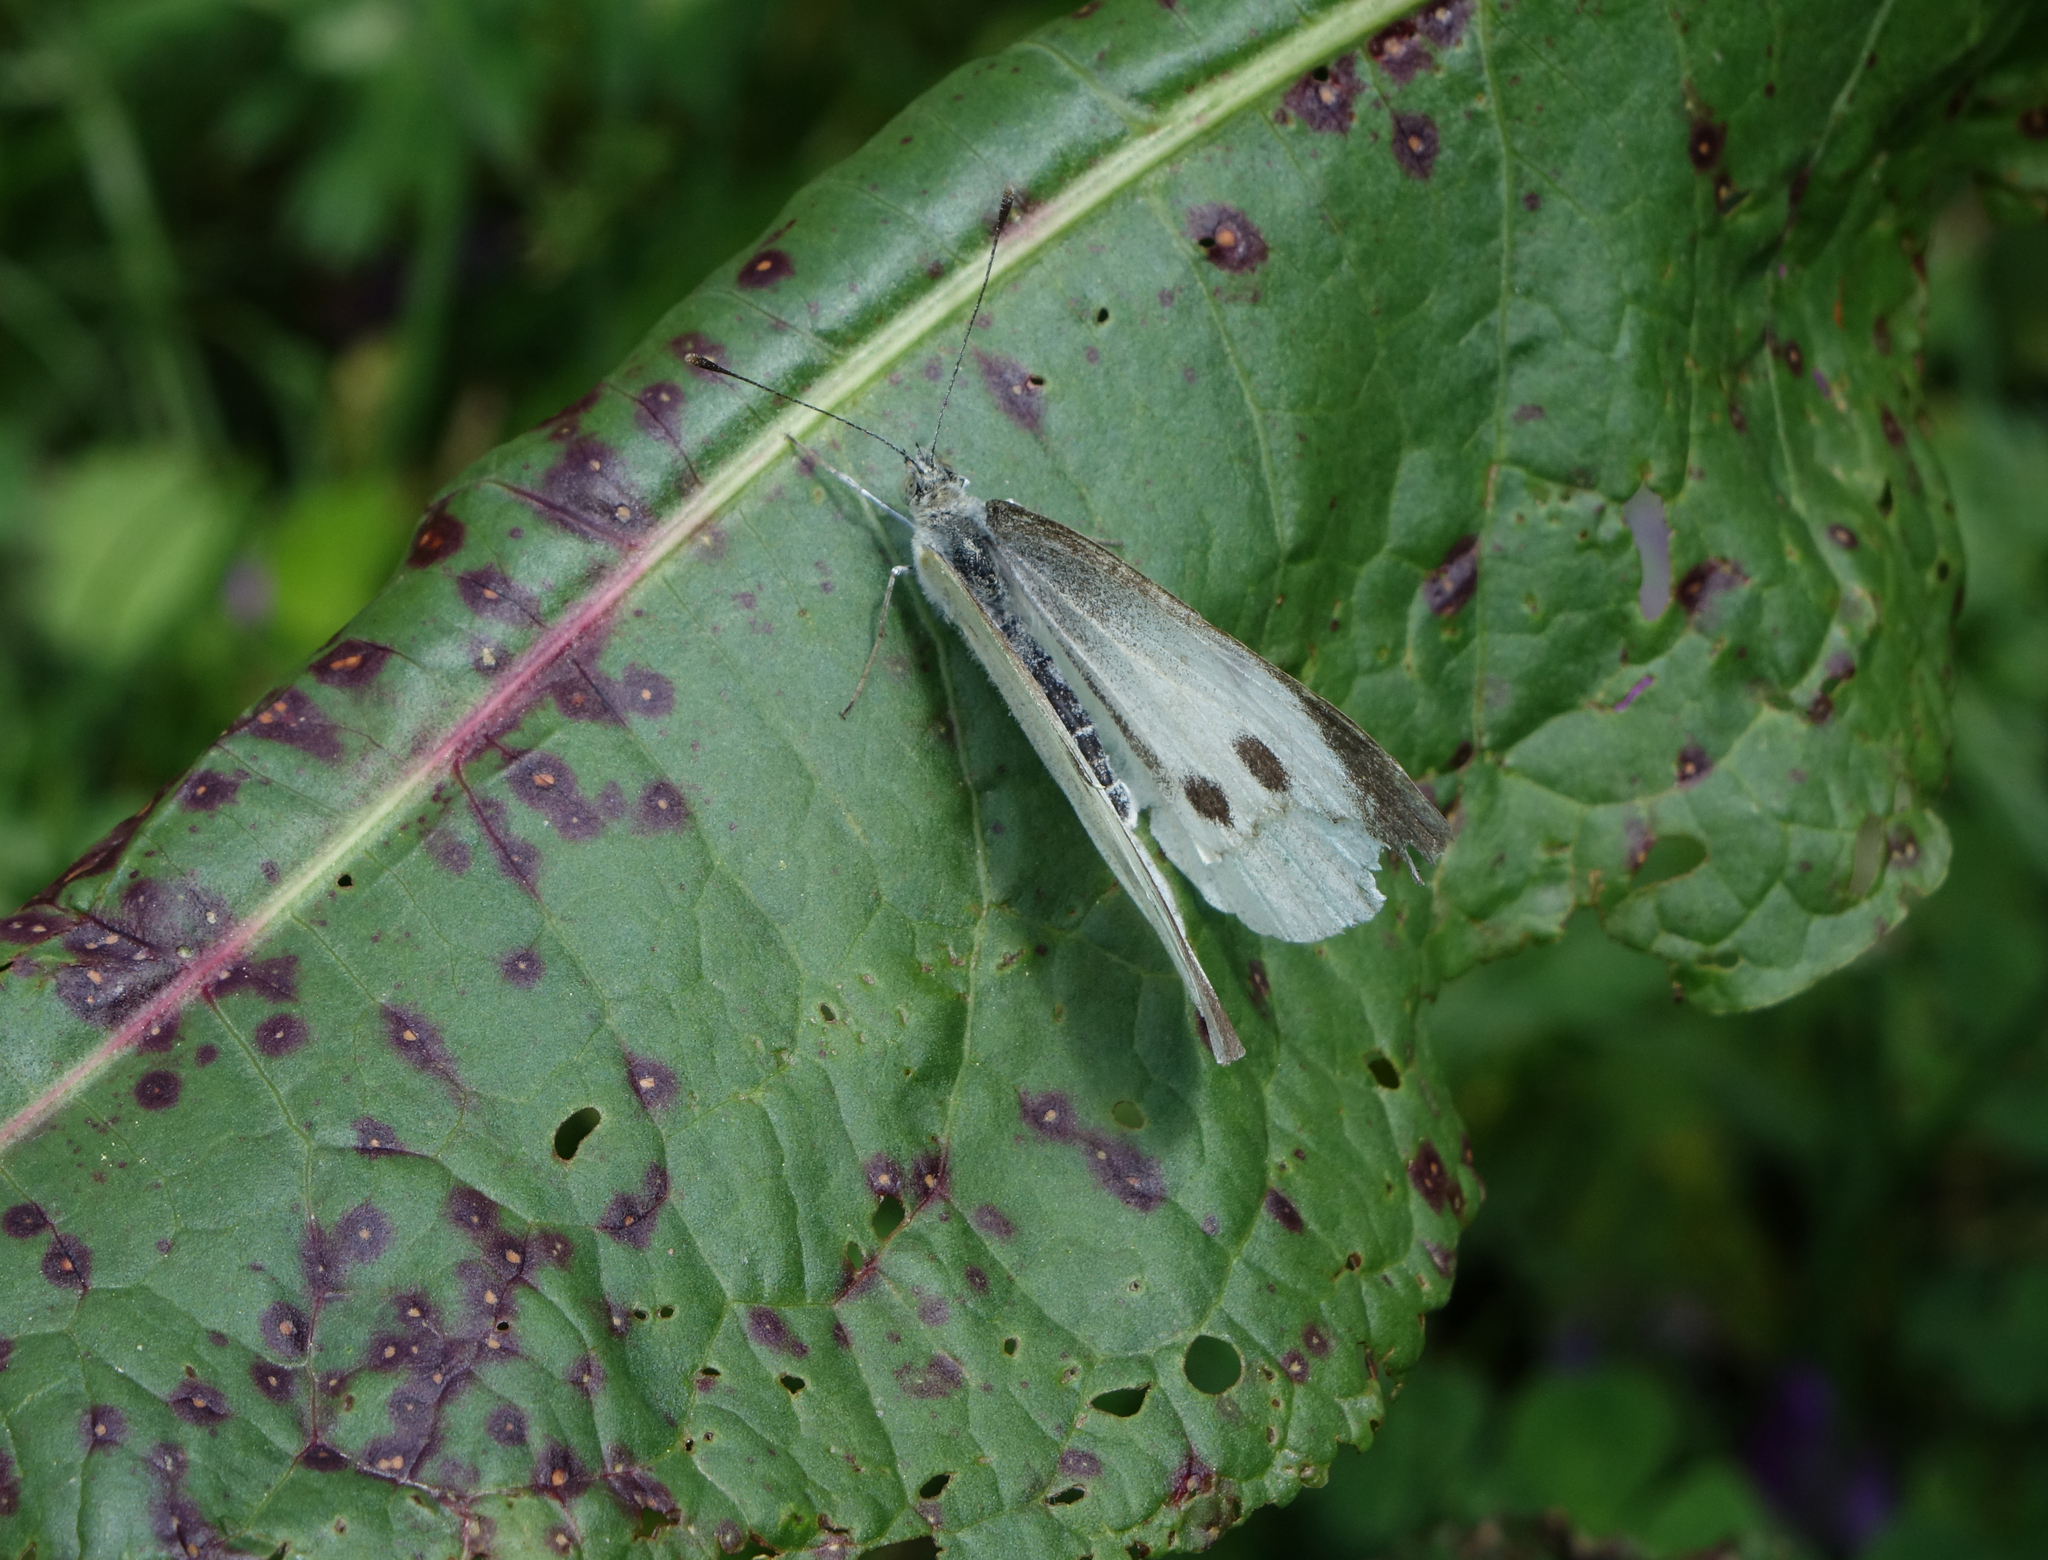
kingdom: Animalia
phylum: Arthropoda
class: Insecta
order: Lepidoptera
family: Pieridae
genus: Pieris
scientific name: Pieris brassicae
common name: Large white
